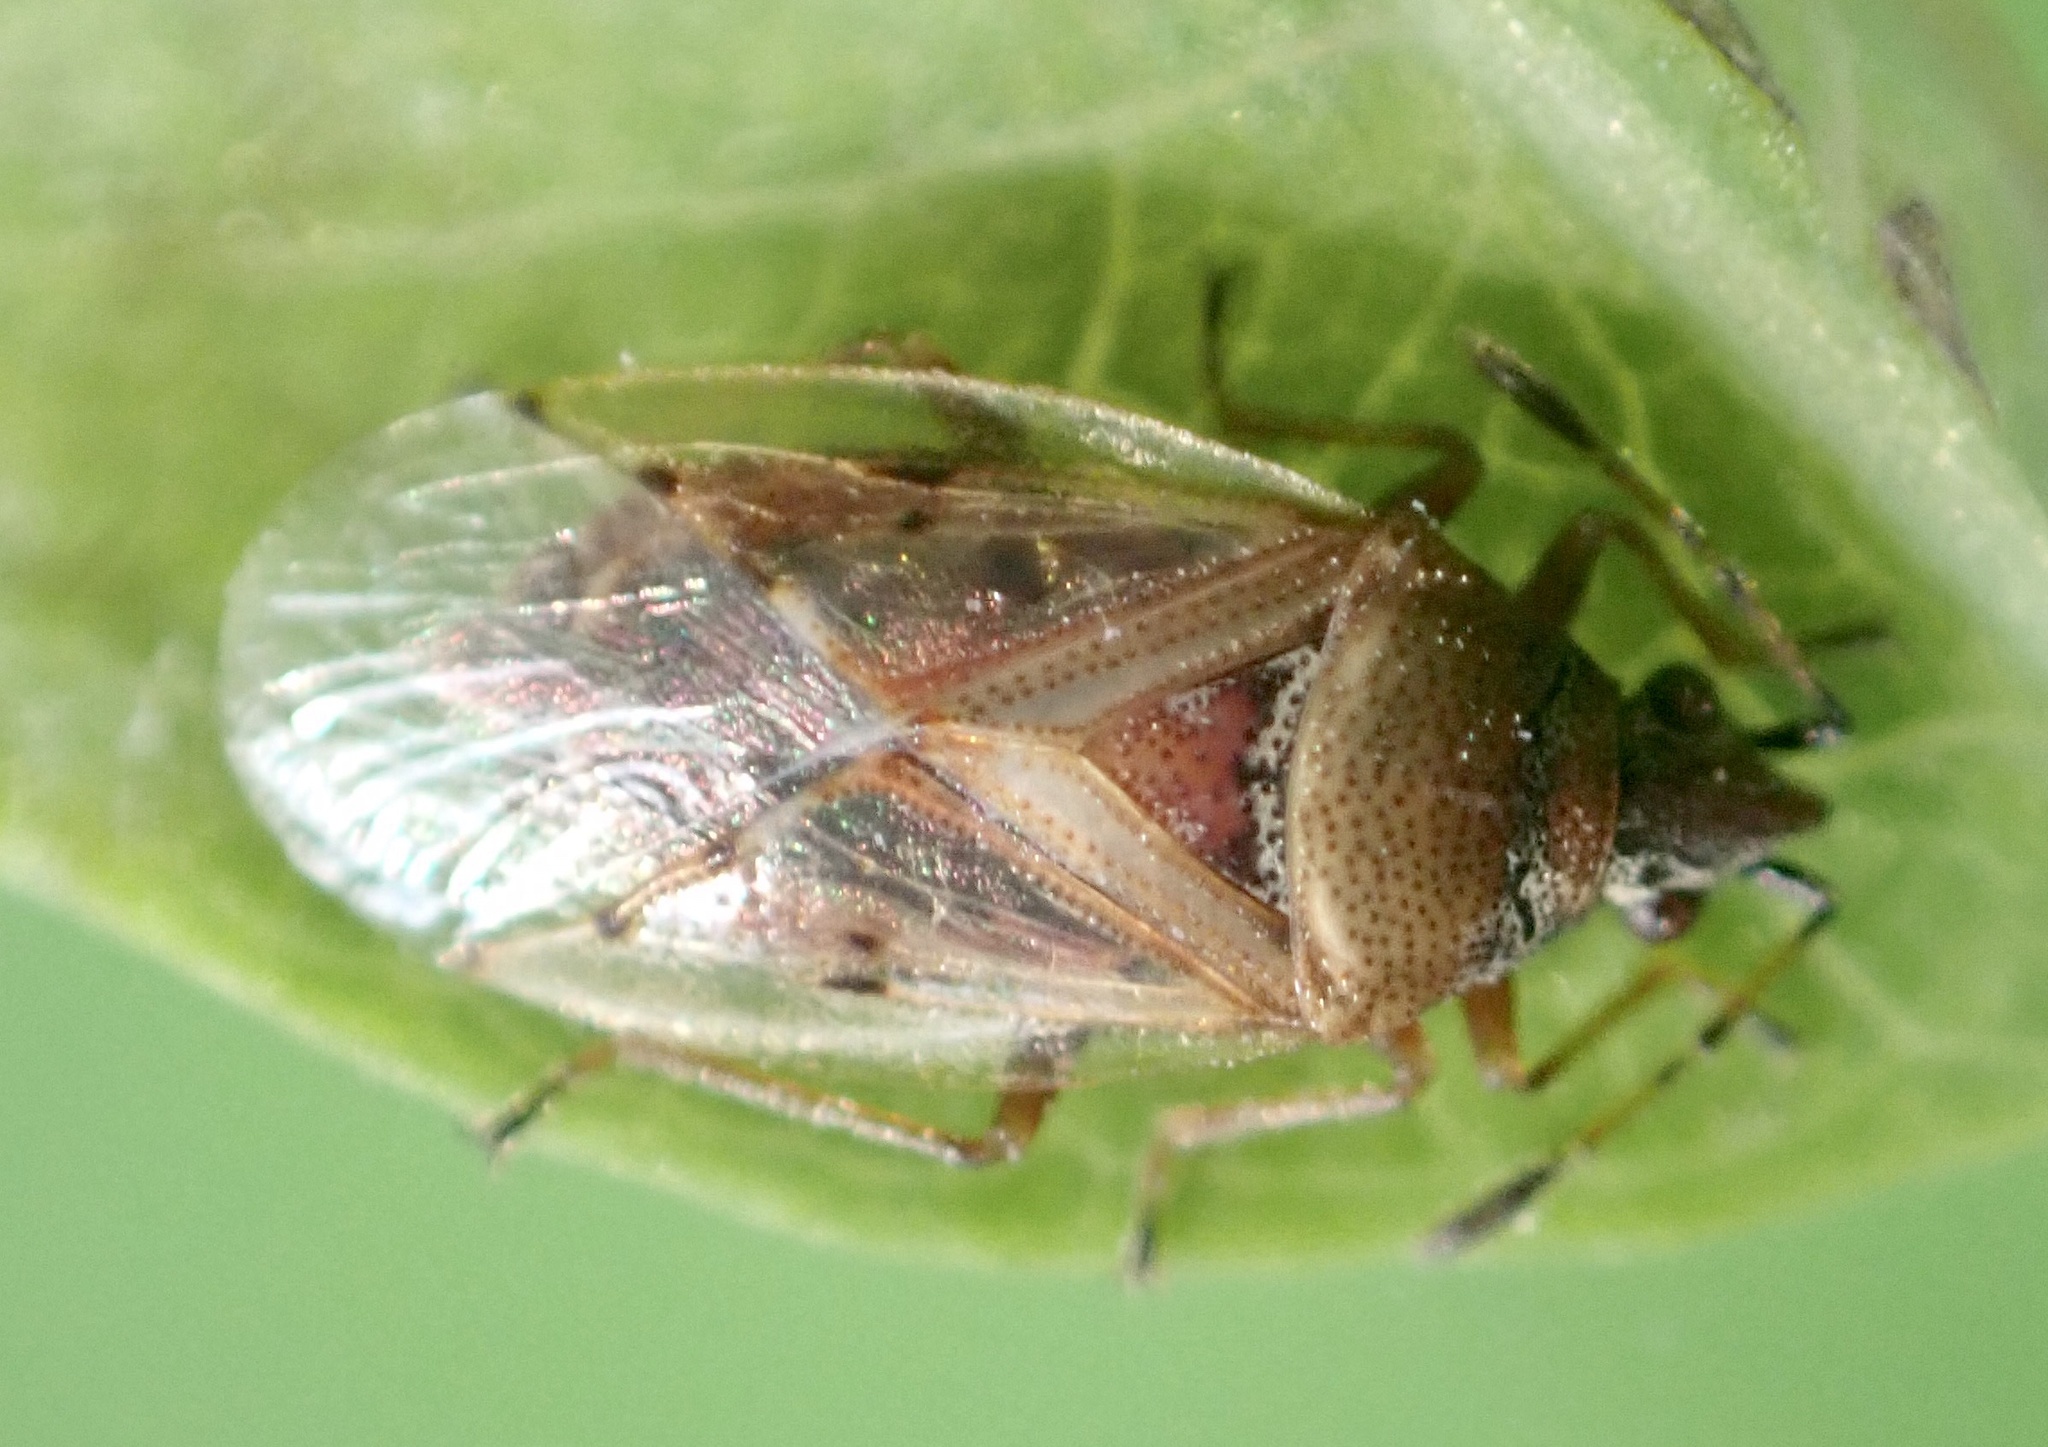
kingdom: Animalia
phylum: Arthropoda
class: Insecta
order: Hemiptera
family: Lygaeidae
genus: Kleidocerys
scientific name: Kleidocerys resedae
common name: Birch catkin bug
